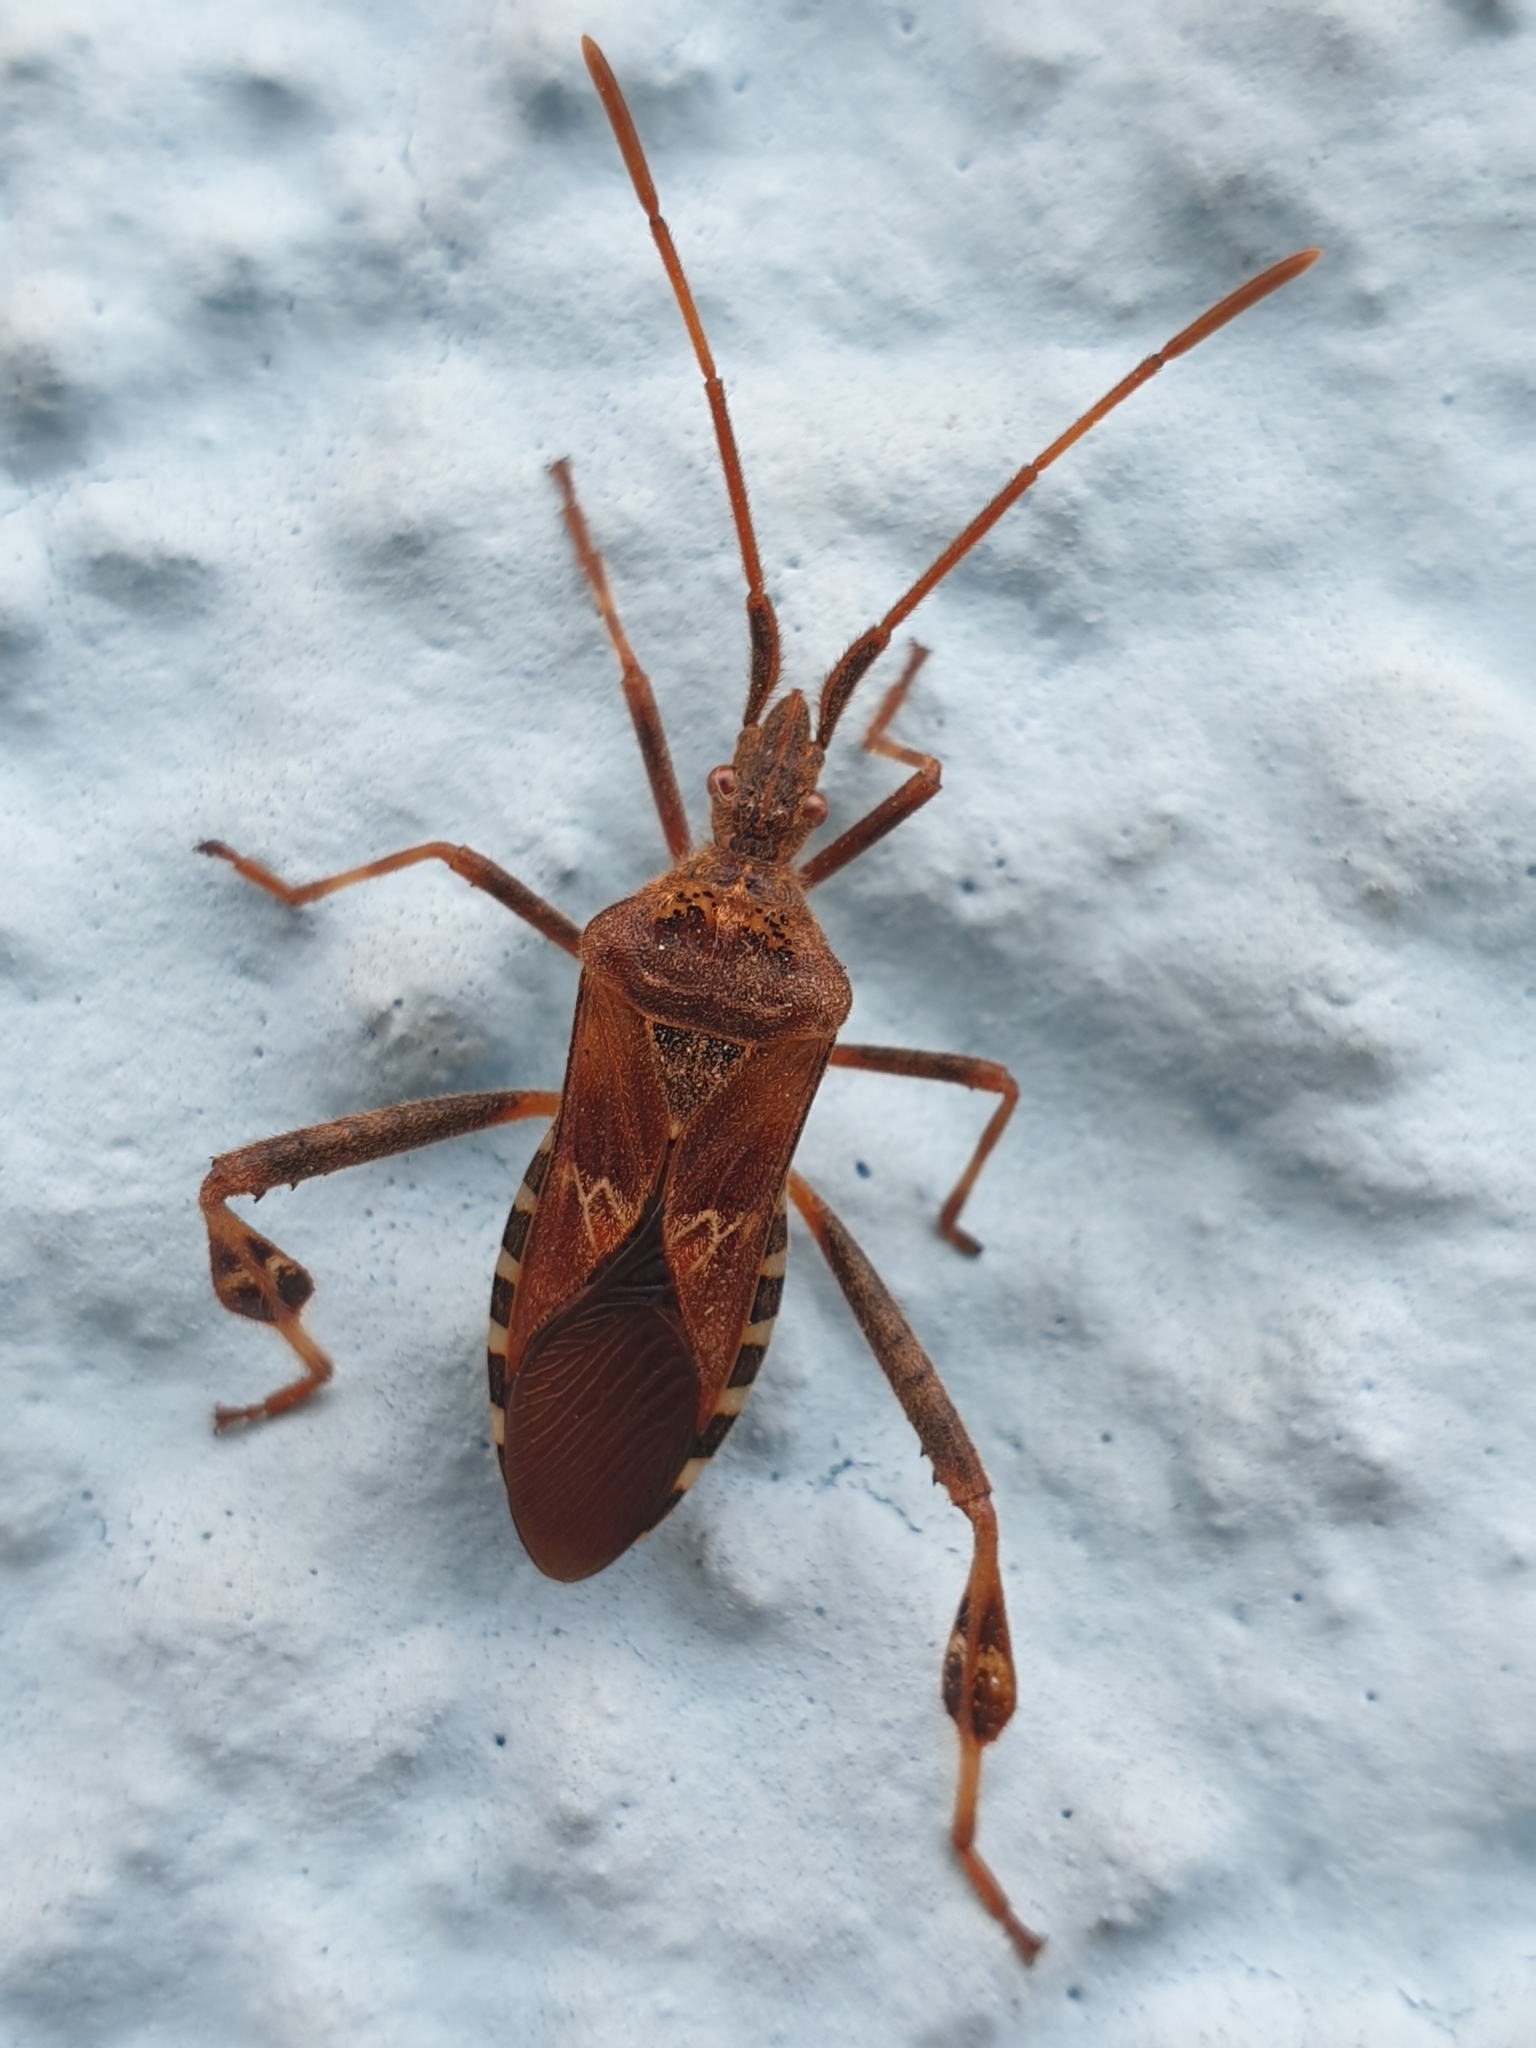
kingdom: Animalia
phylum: Arthropoda
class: Insecta
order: Hemiptera
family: Coreidae
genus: Leptoglossus
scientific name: Leptoglossus occidentalis
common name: Western conifer-seed bug
